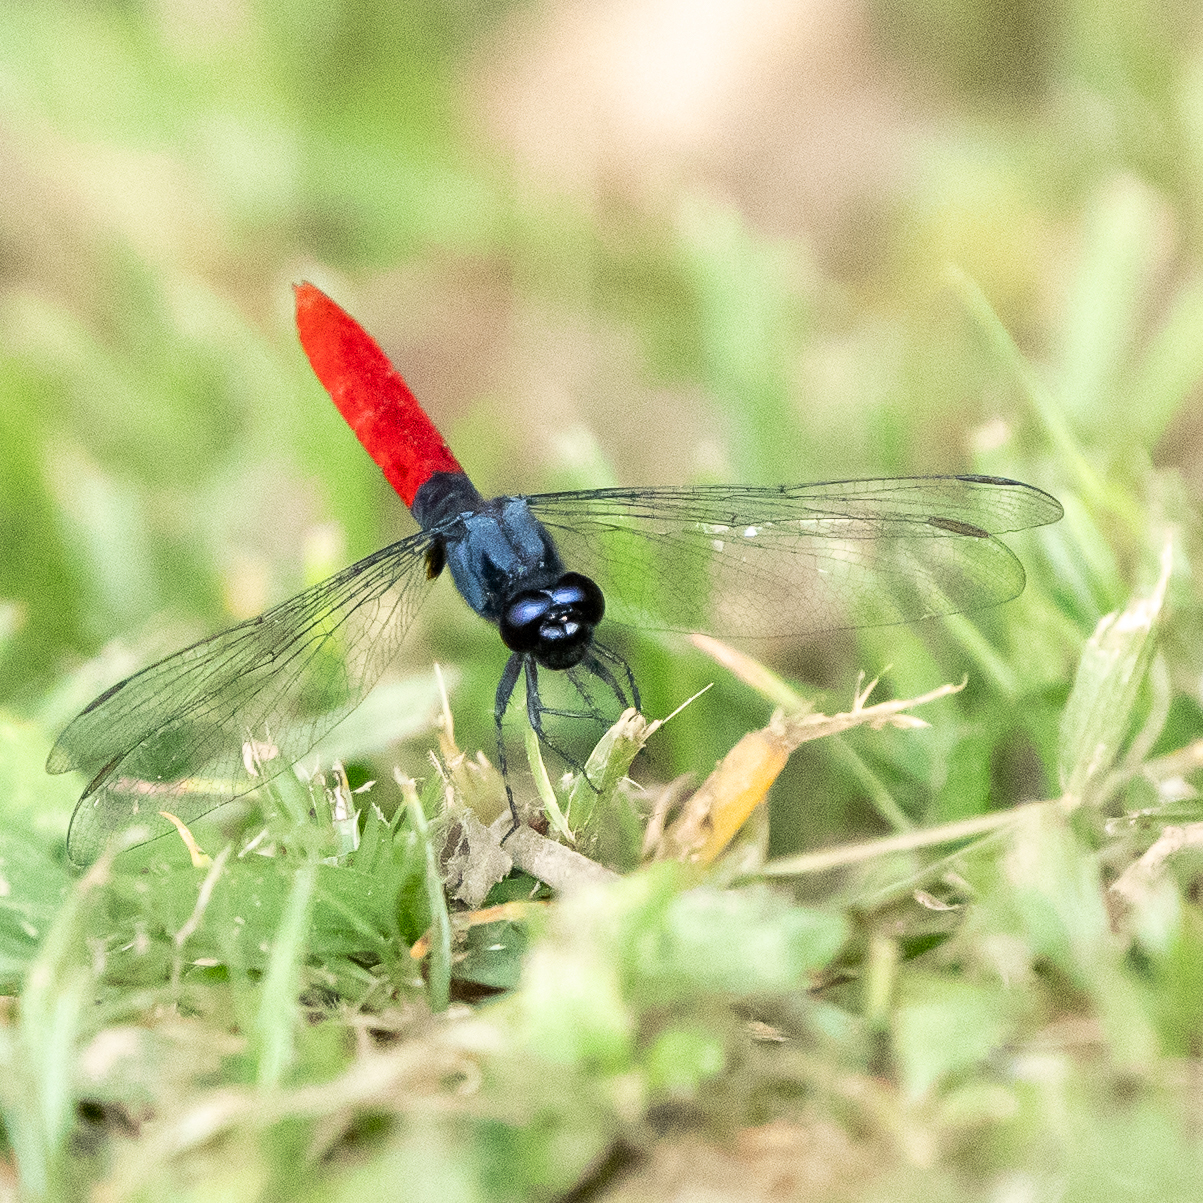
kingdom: Animalia
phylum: Arthropoda
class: Insecta
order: Odonata
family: Libellulidae
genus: Erythemis
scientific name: Erythemis peruviana
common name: Flame-tailed pondhawk
